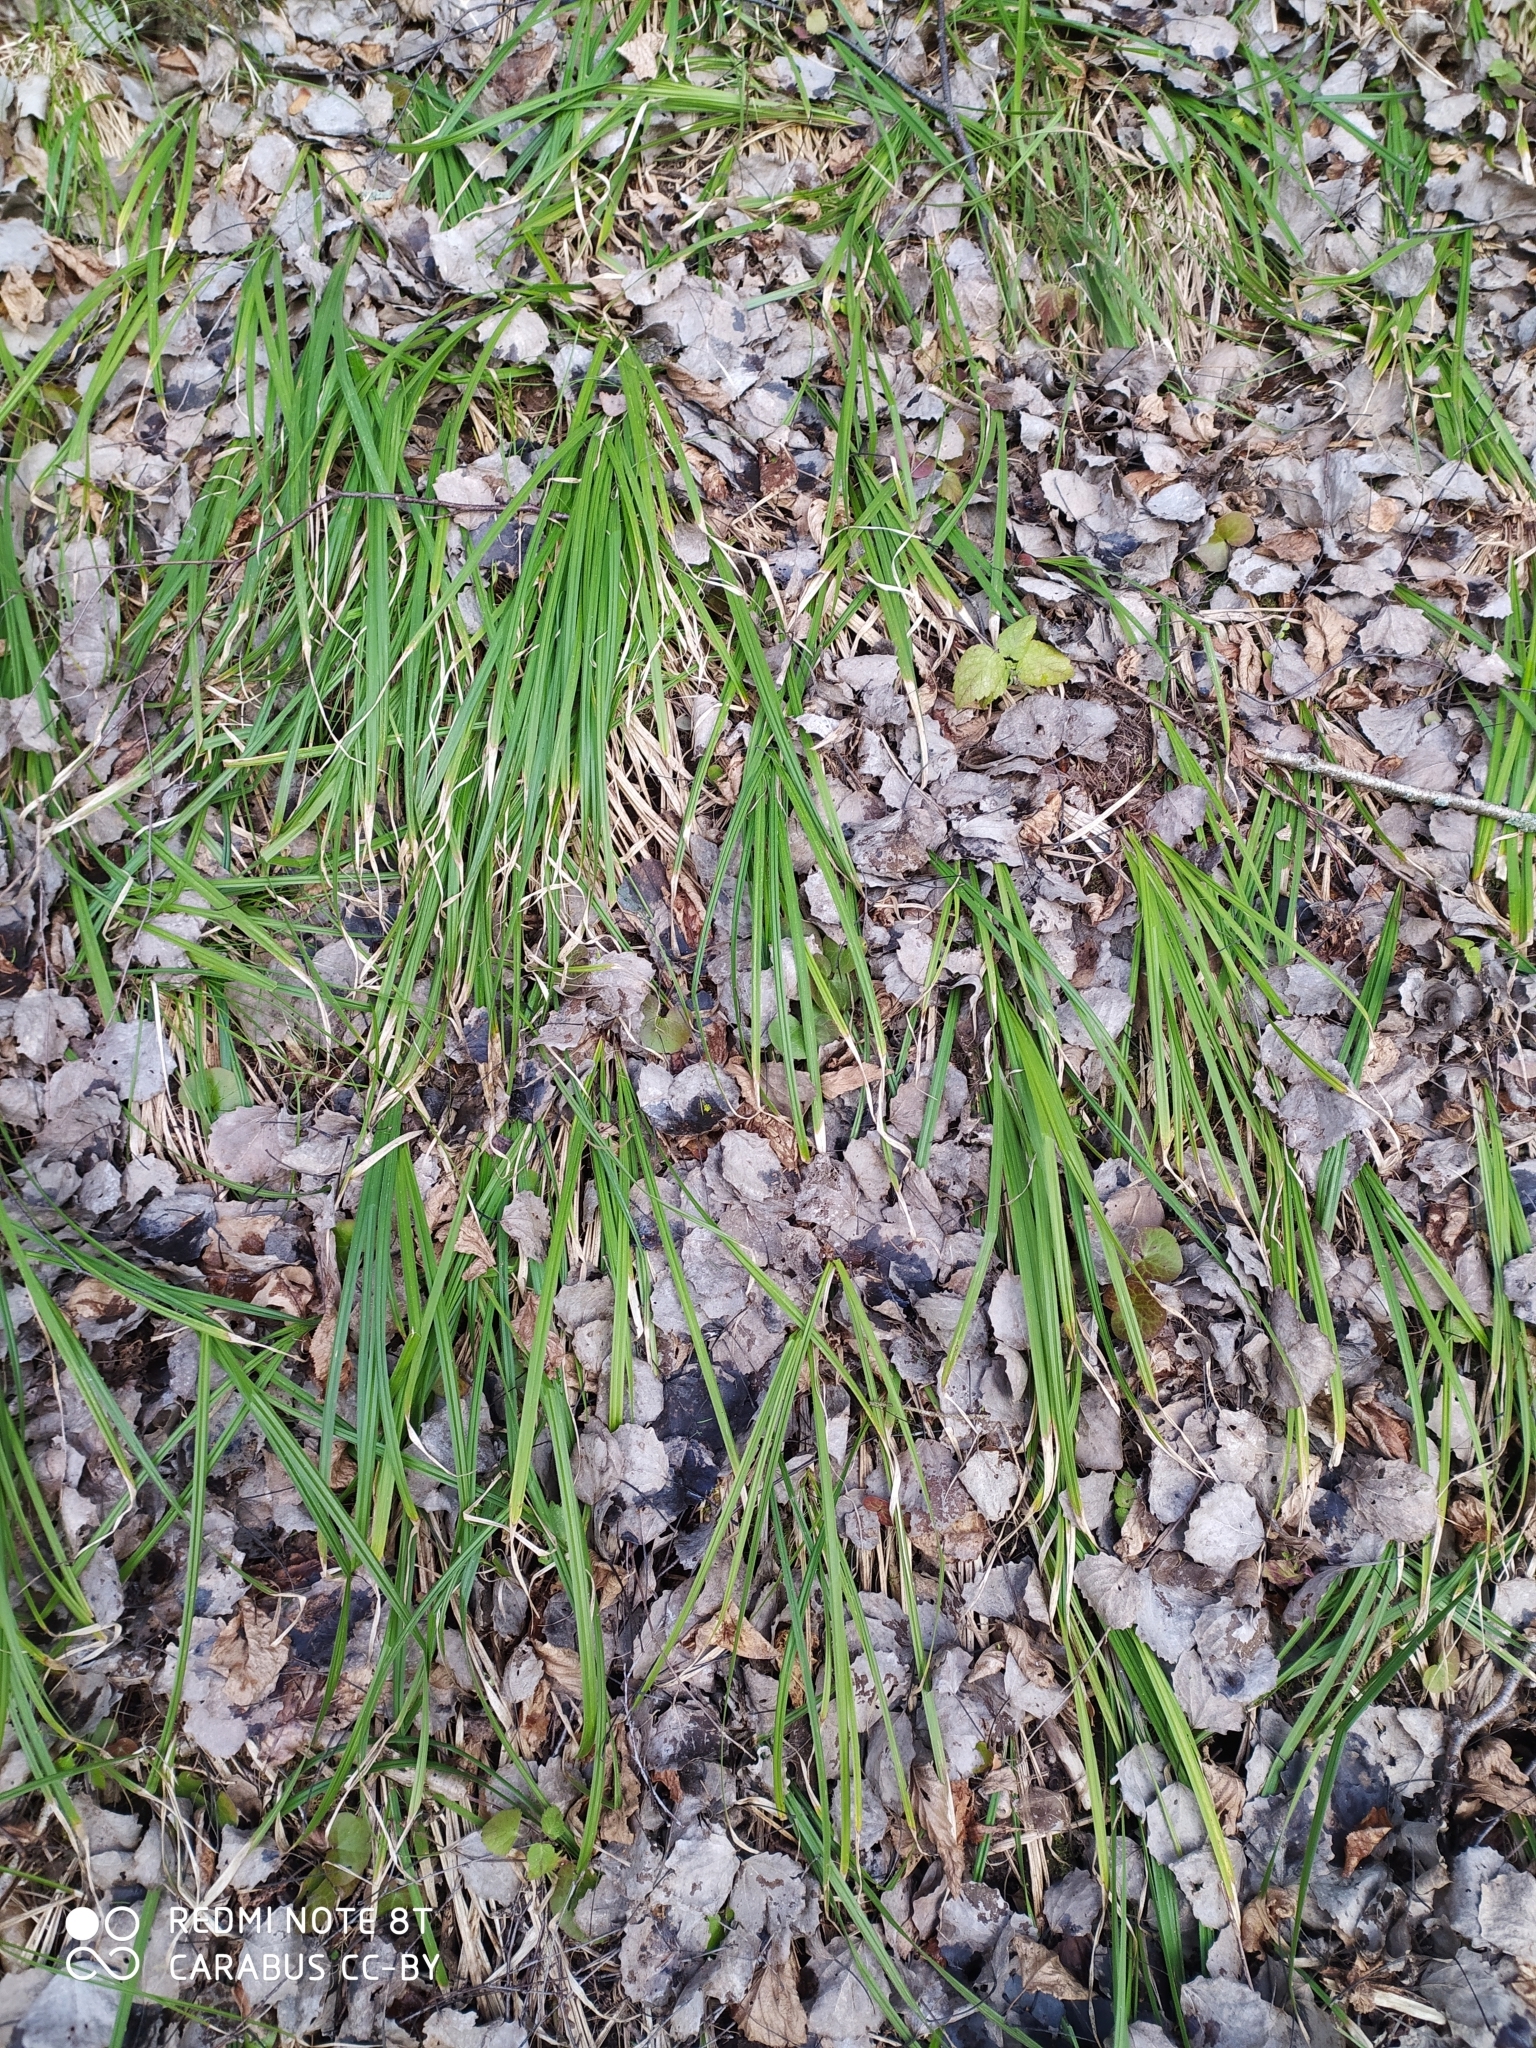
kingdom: Plantae
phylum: Tracheophyta
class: Liliopsida
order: Poales
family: Cyperaceae
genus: Carex
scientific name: Carex pilosa
